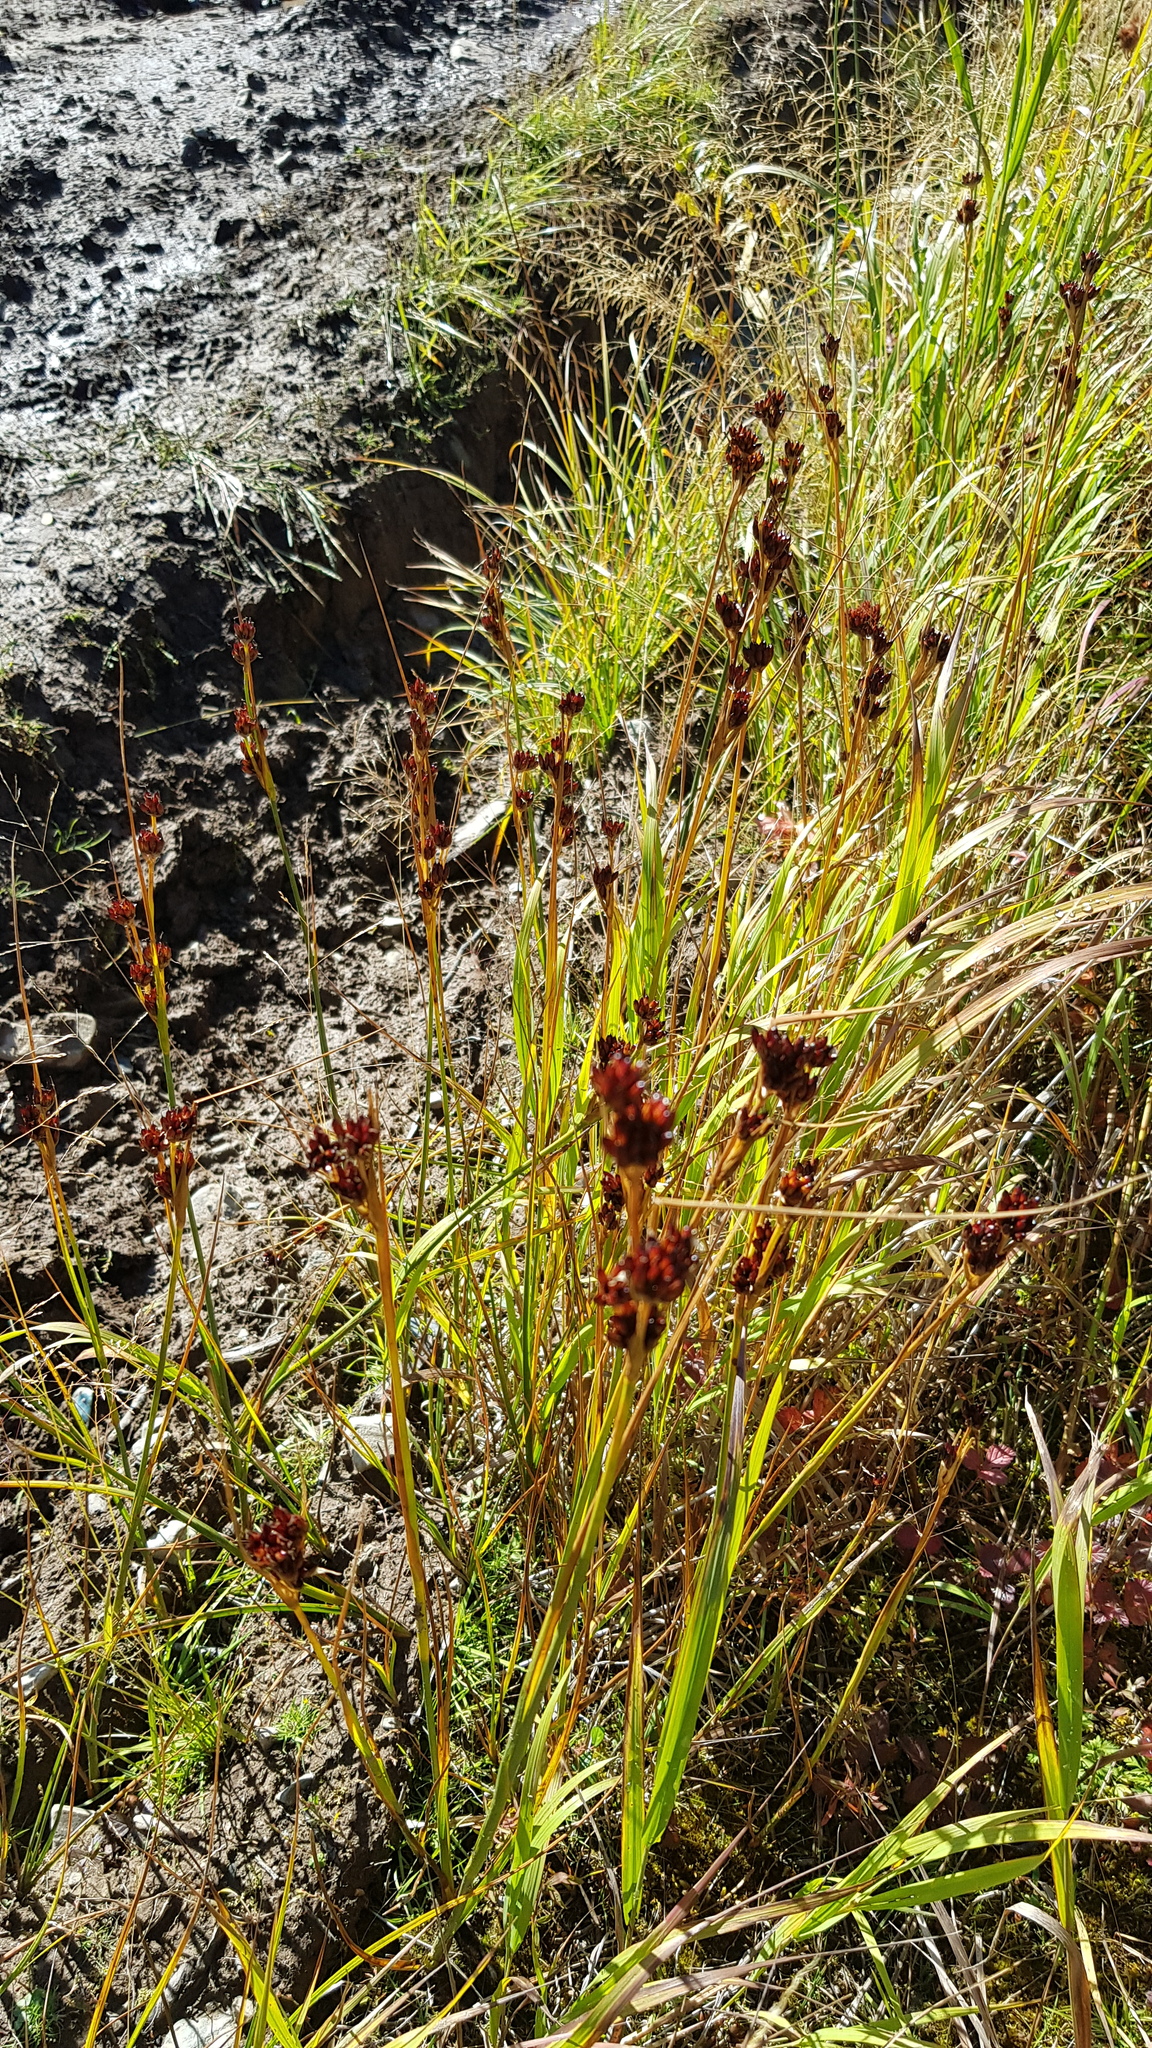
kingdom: Plantae
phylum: Tracheophyta
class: Liliopsida
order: Poales
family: Juncaceae
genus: Juncus
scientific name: Juncus compressus
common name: Round-fruited rush
